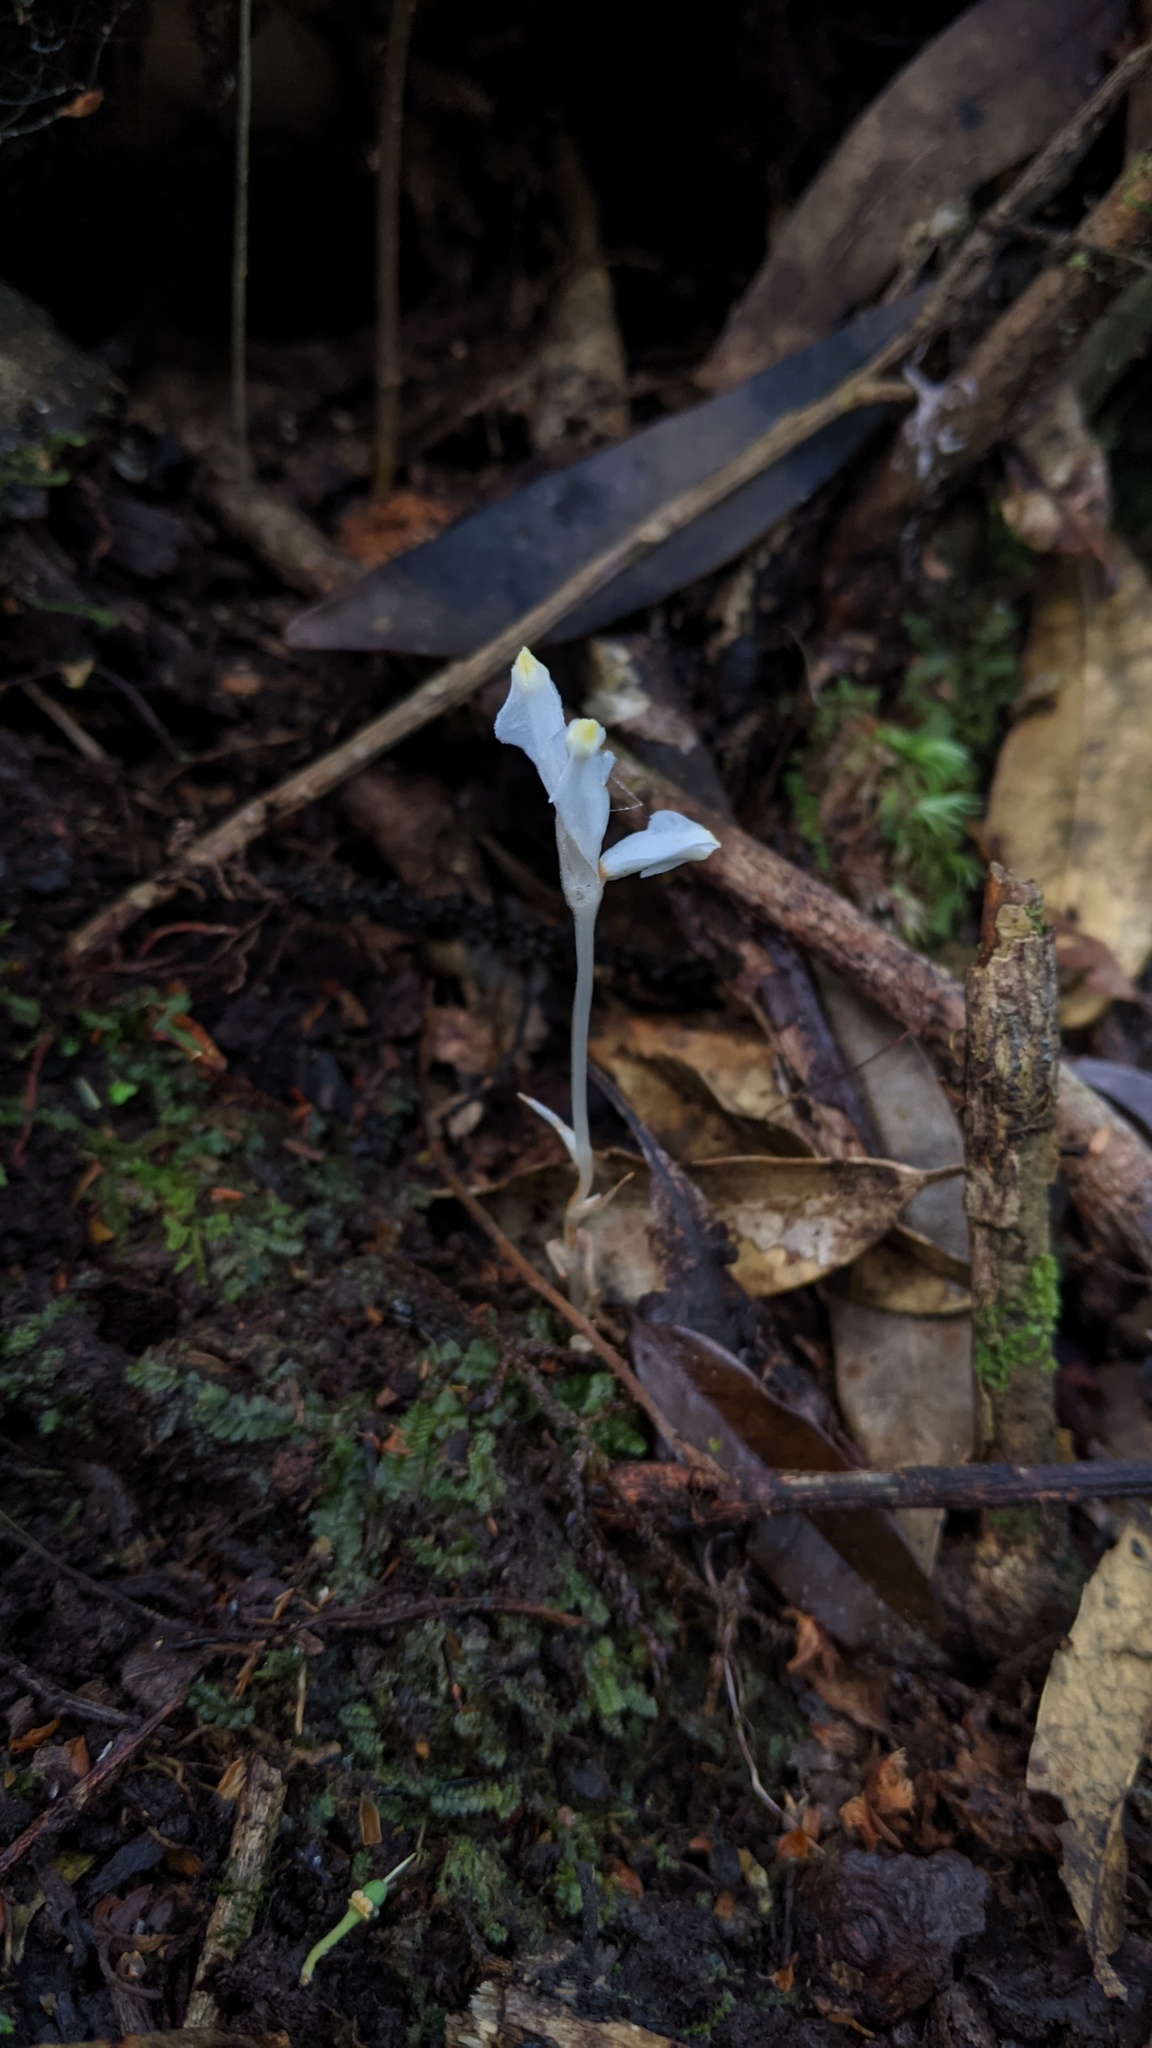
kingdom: Plantae
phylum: Tracheophyta
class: Liliopsida
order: Dioscoreales
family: Burmanniaceae
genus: Burmannia
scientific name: Burmannia cryptopetala
